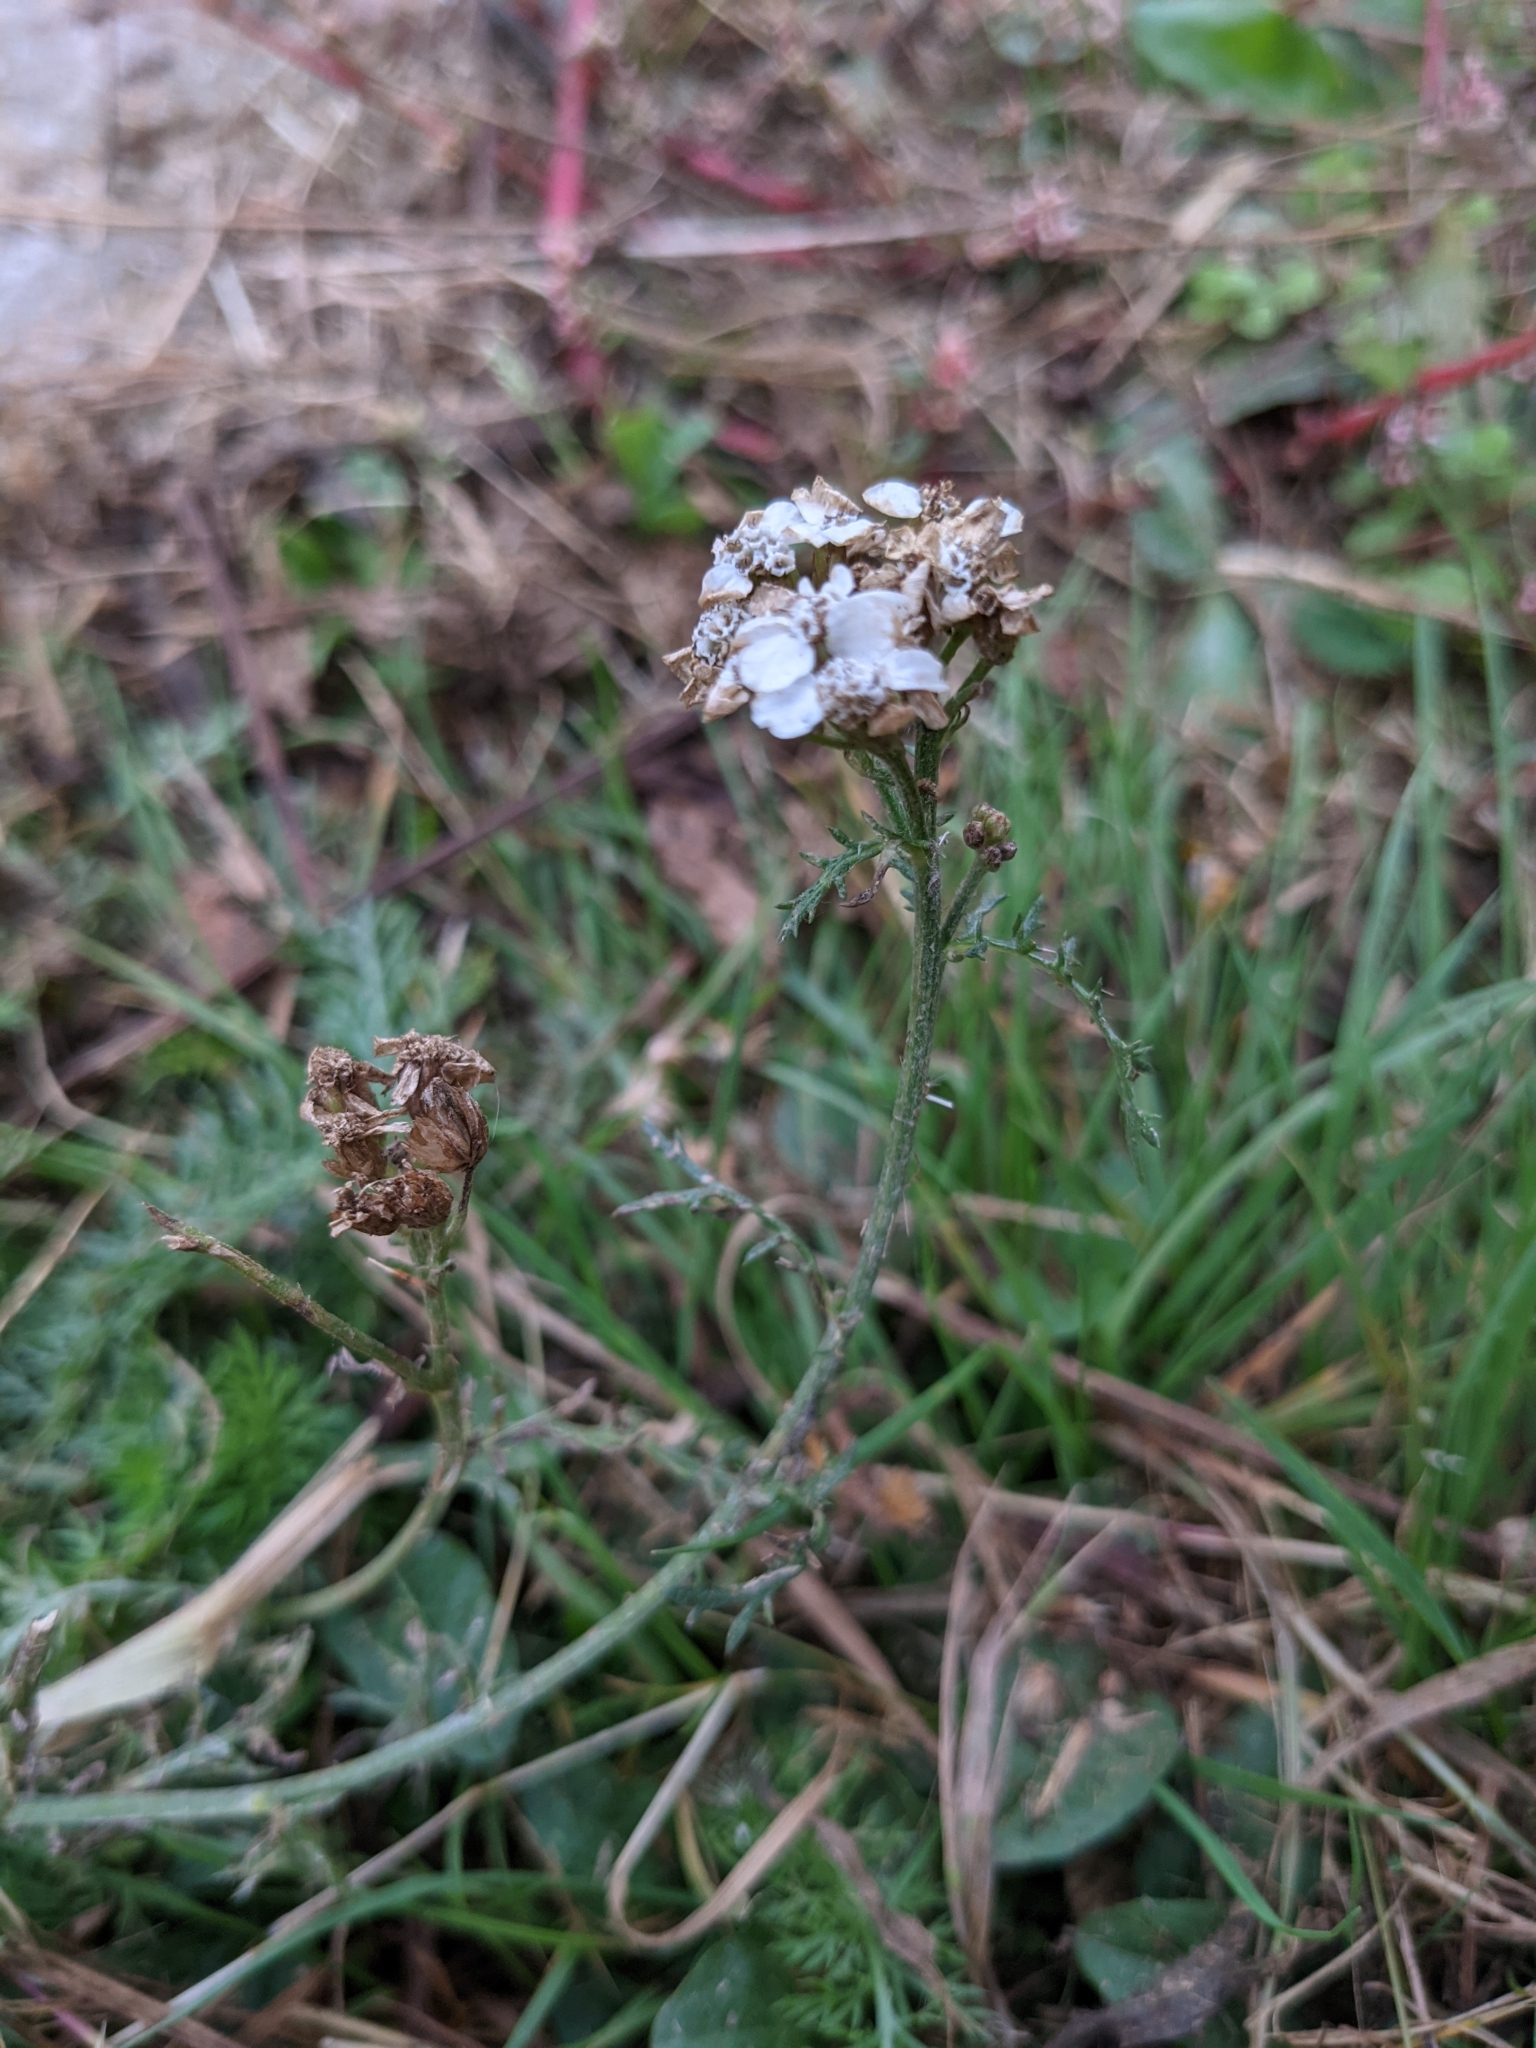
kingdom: Plantae
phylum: Tracheophyta
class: Magnoliopsida
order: Asterales
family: Asteraceae
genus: Achillea
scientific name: Achillea millefolium
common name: Yarrow
